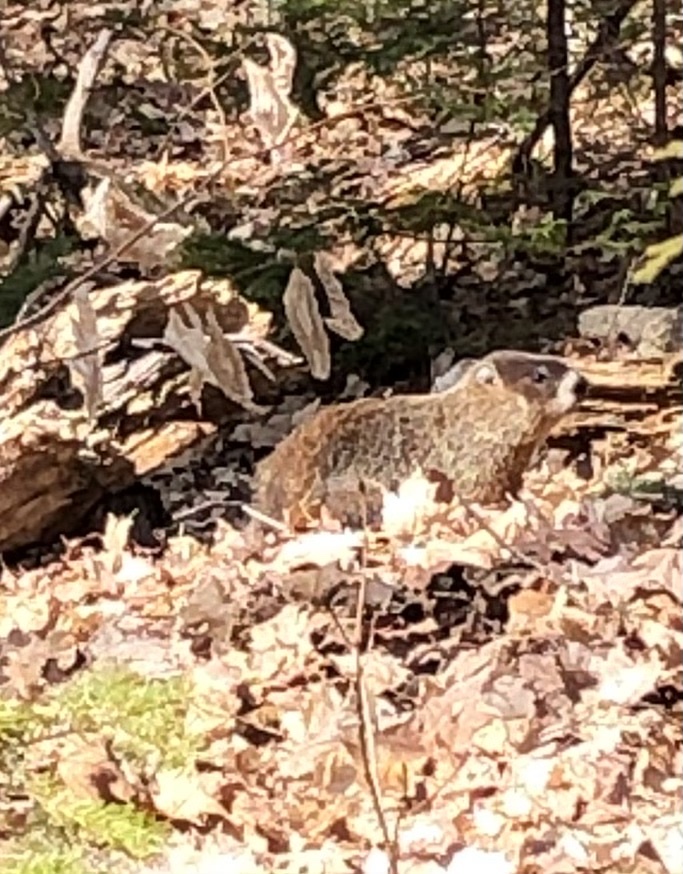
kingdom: Animalia
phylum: Chordata
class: Mammalia
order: Rodentia
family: Sciuridae
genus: Marmota
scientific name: Marmota monax
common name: Groundhog
